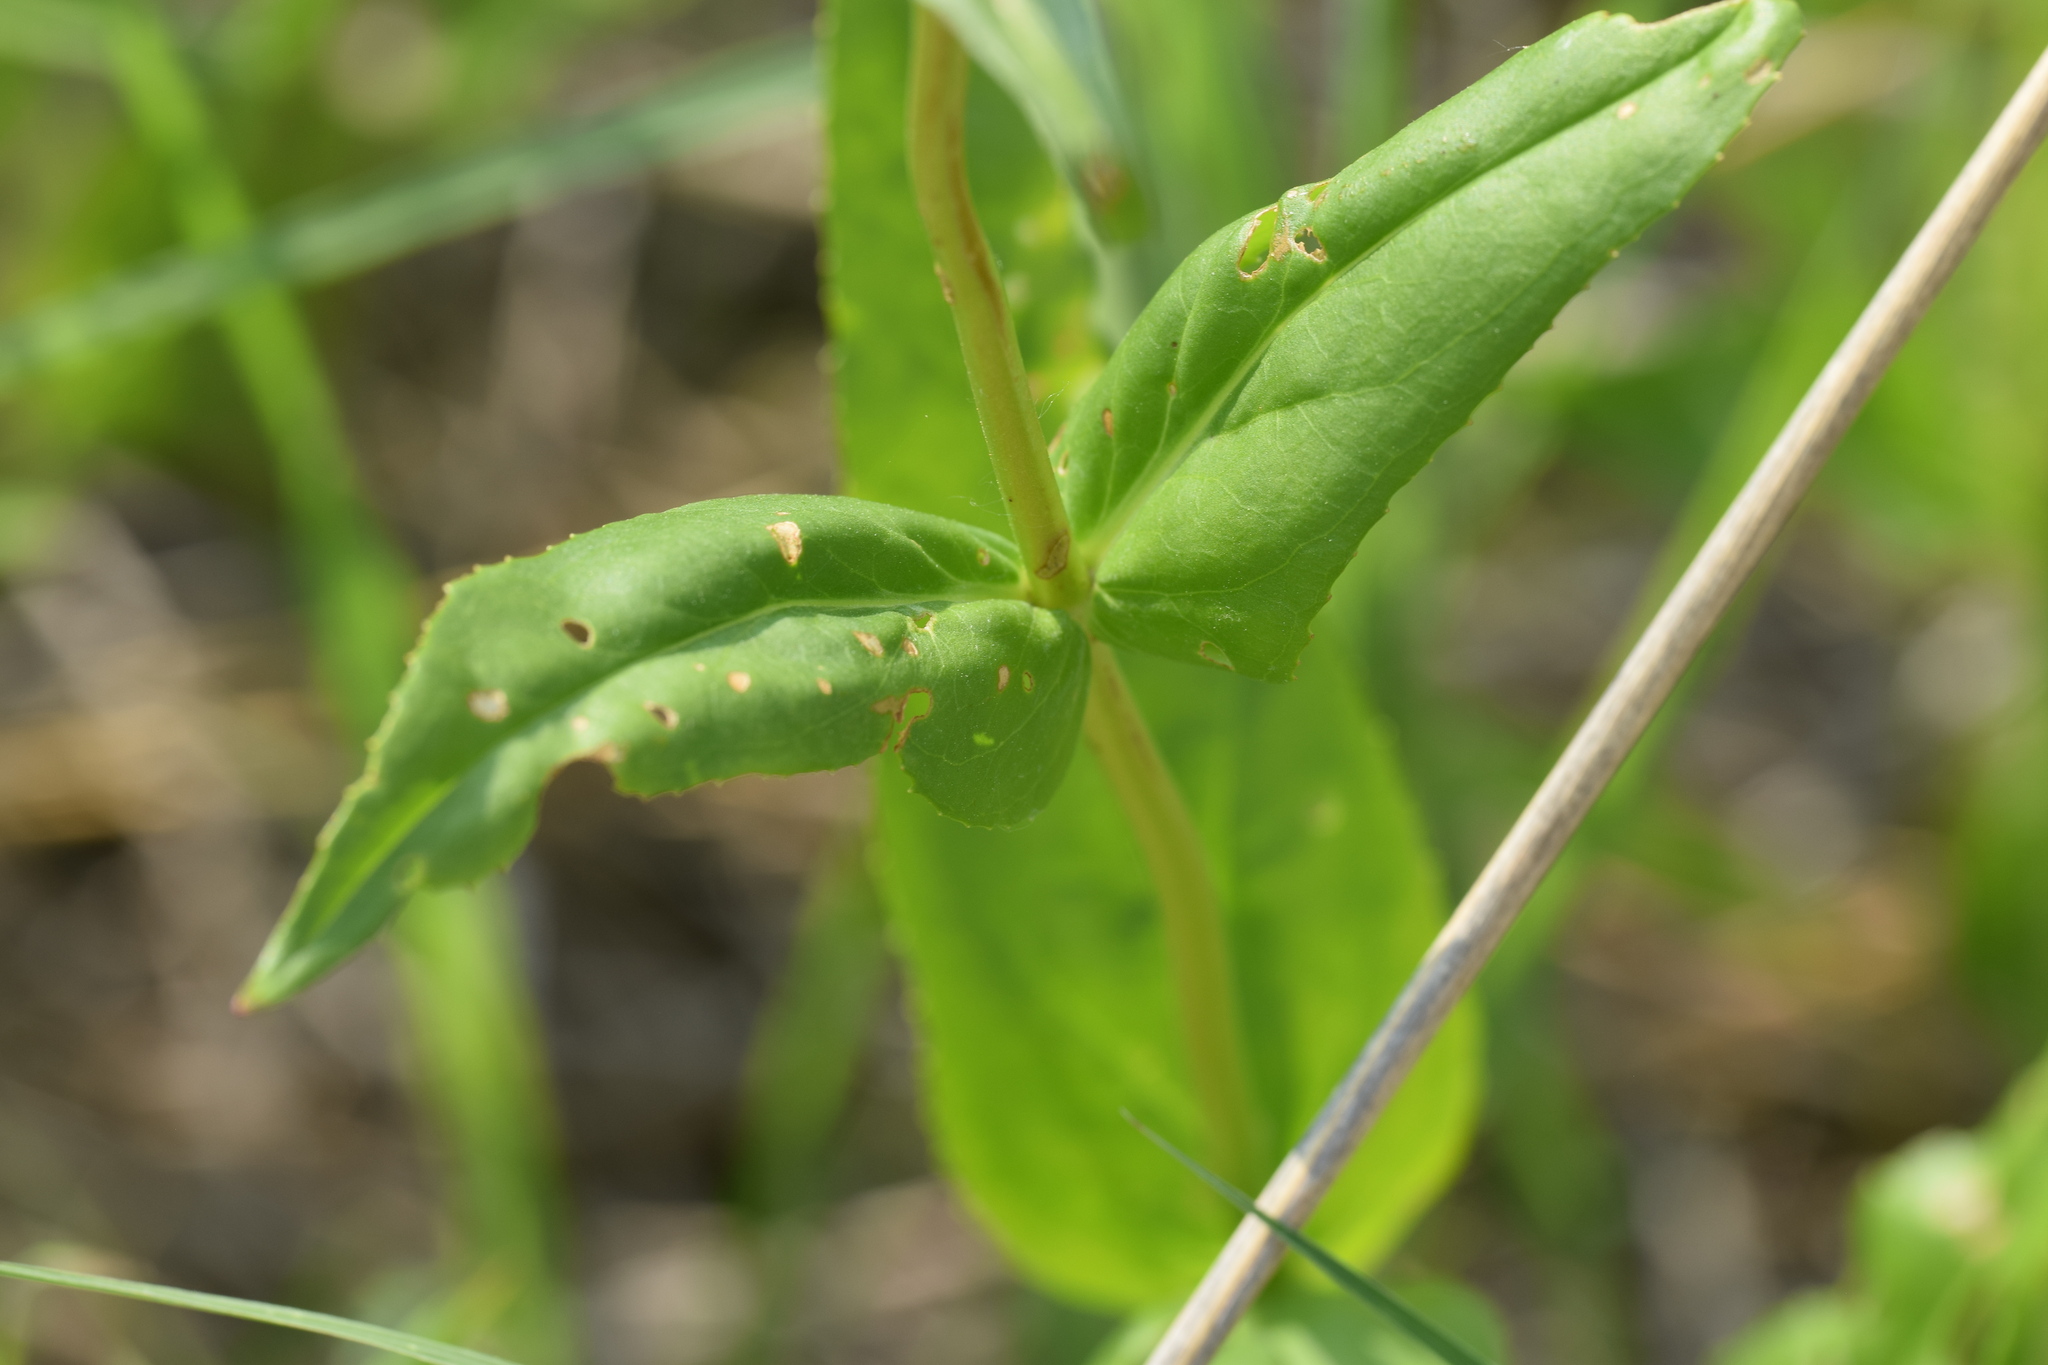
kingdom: Plantae
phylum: Tracheophyta
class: Magnoliopsida
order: Lamiales
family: Plantaginaceae
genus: Penstemon
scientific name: Penstemon digitalis
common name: Foxglove beardtongue
